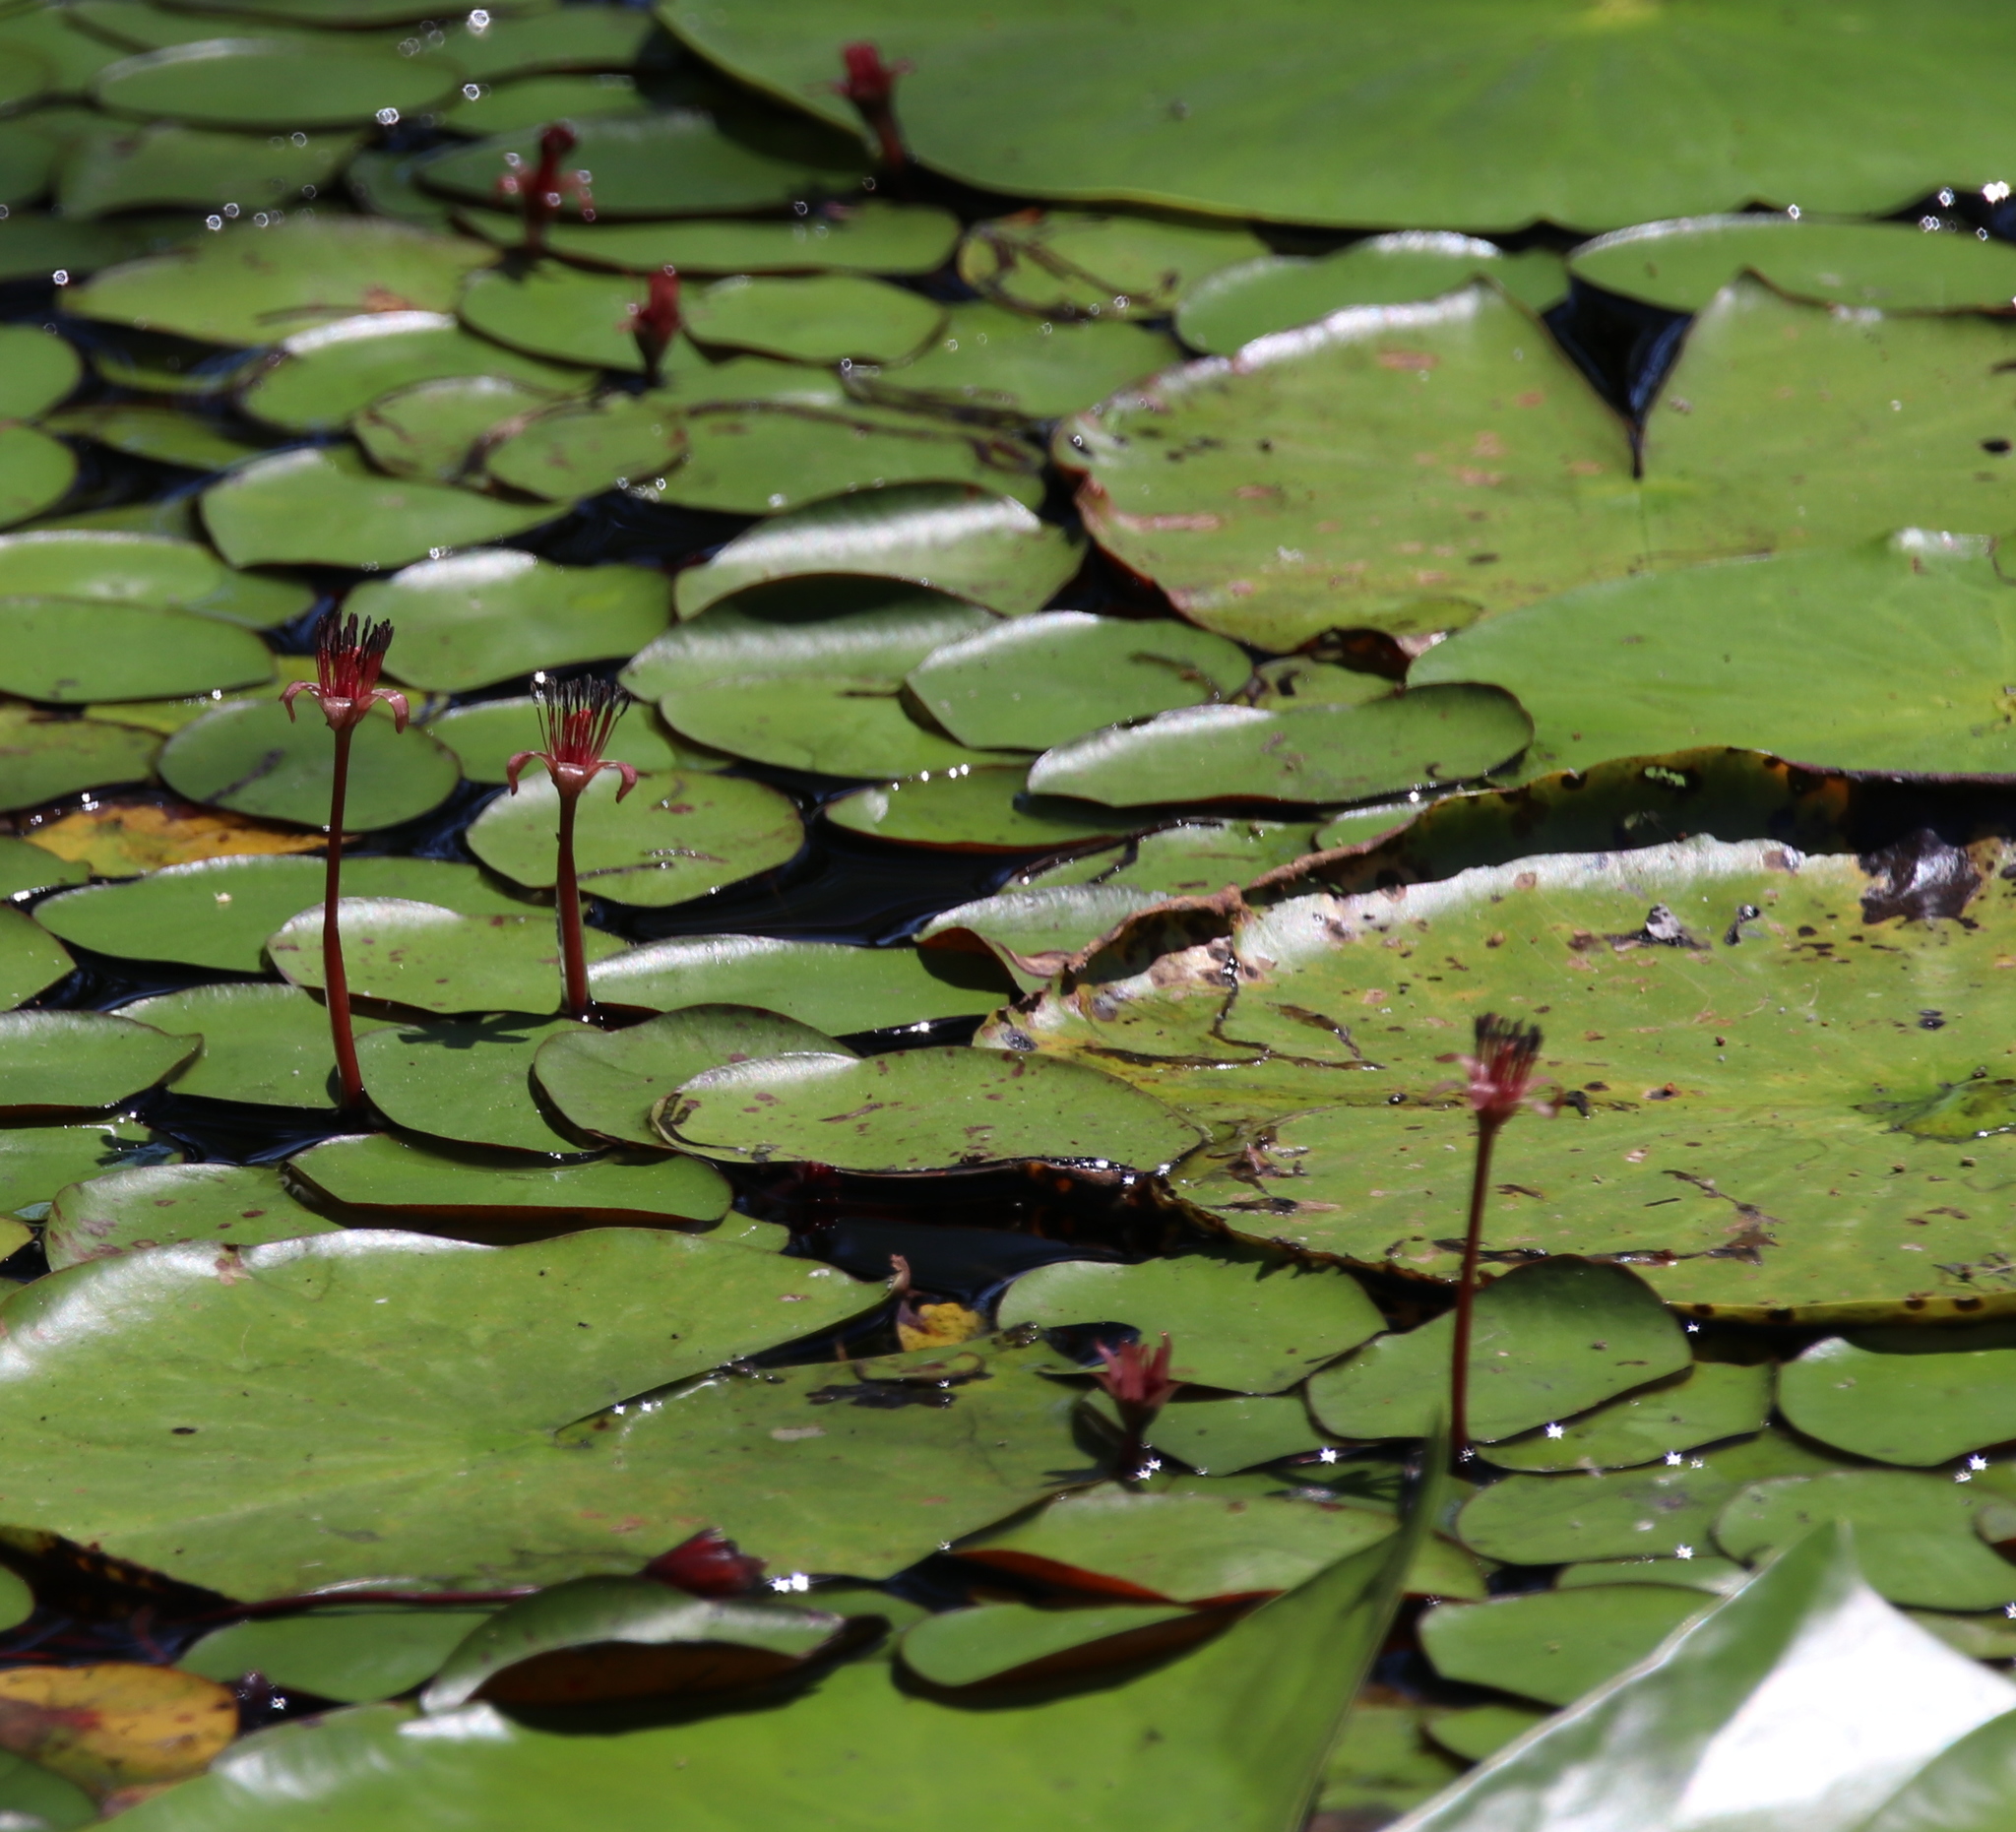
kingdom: Plantae
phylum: Tracheophyta
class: Magnoliopsida
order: Nymphaeales
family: Cabombaceae
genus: Brasenia
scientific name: Brasenia schreberi
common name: Water-shield
